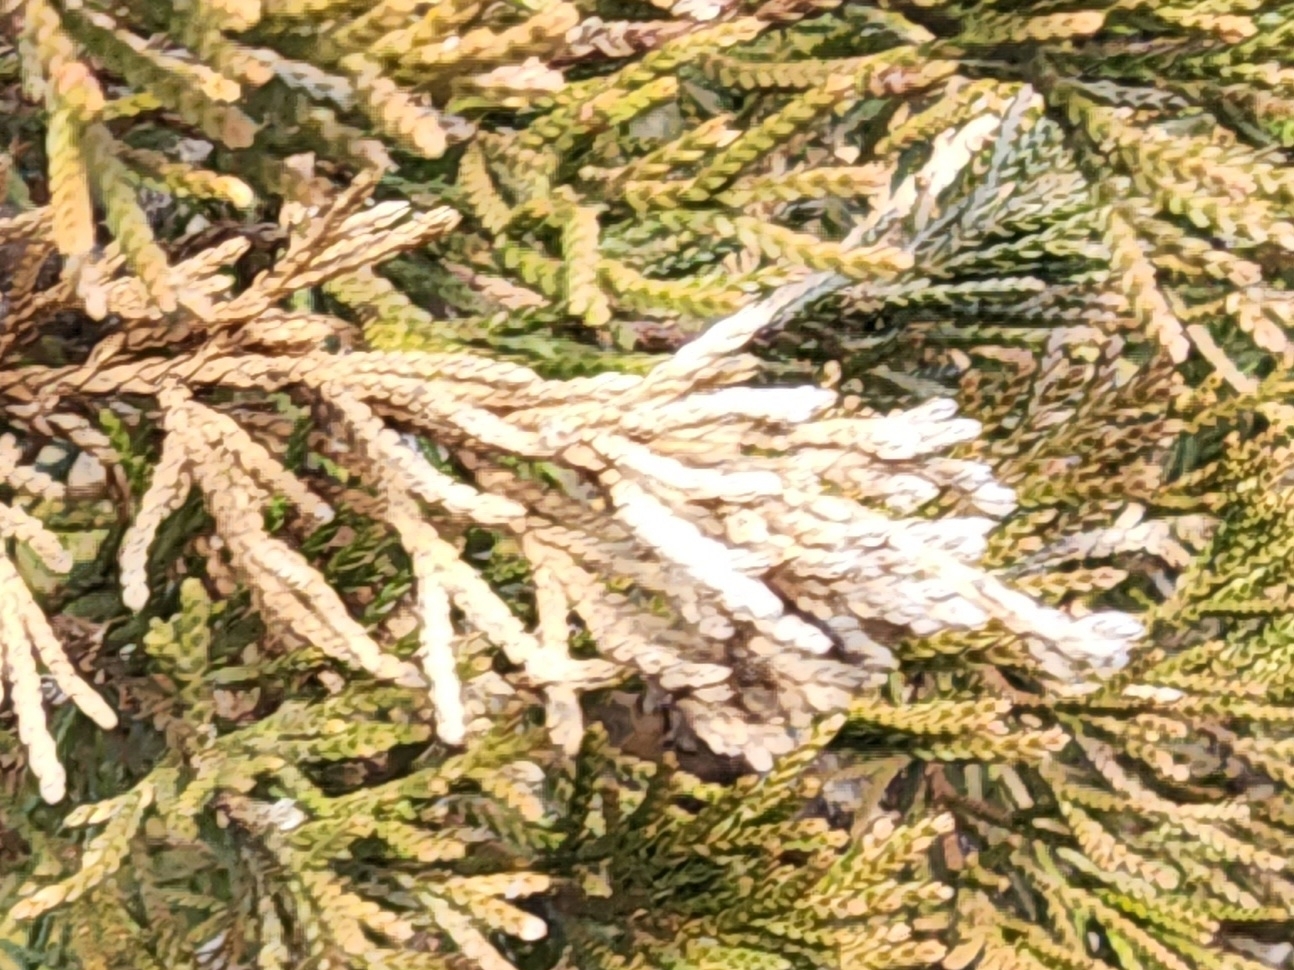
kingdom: Fungi
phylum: Ascomycota
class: Sordariomycetes
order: Amphisphaeriales
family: Pestalotiopsidaceae
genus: Pestalotiopsis
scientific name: Pestalotiopsis funerea
